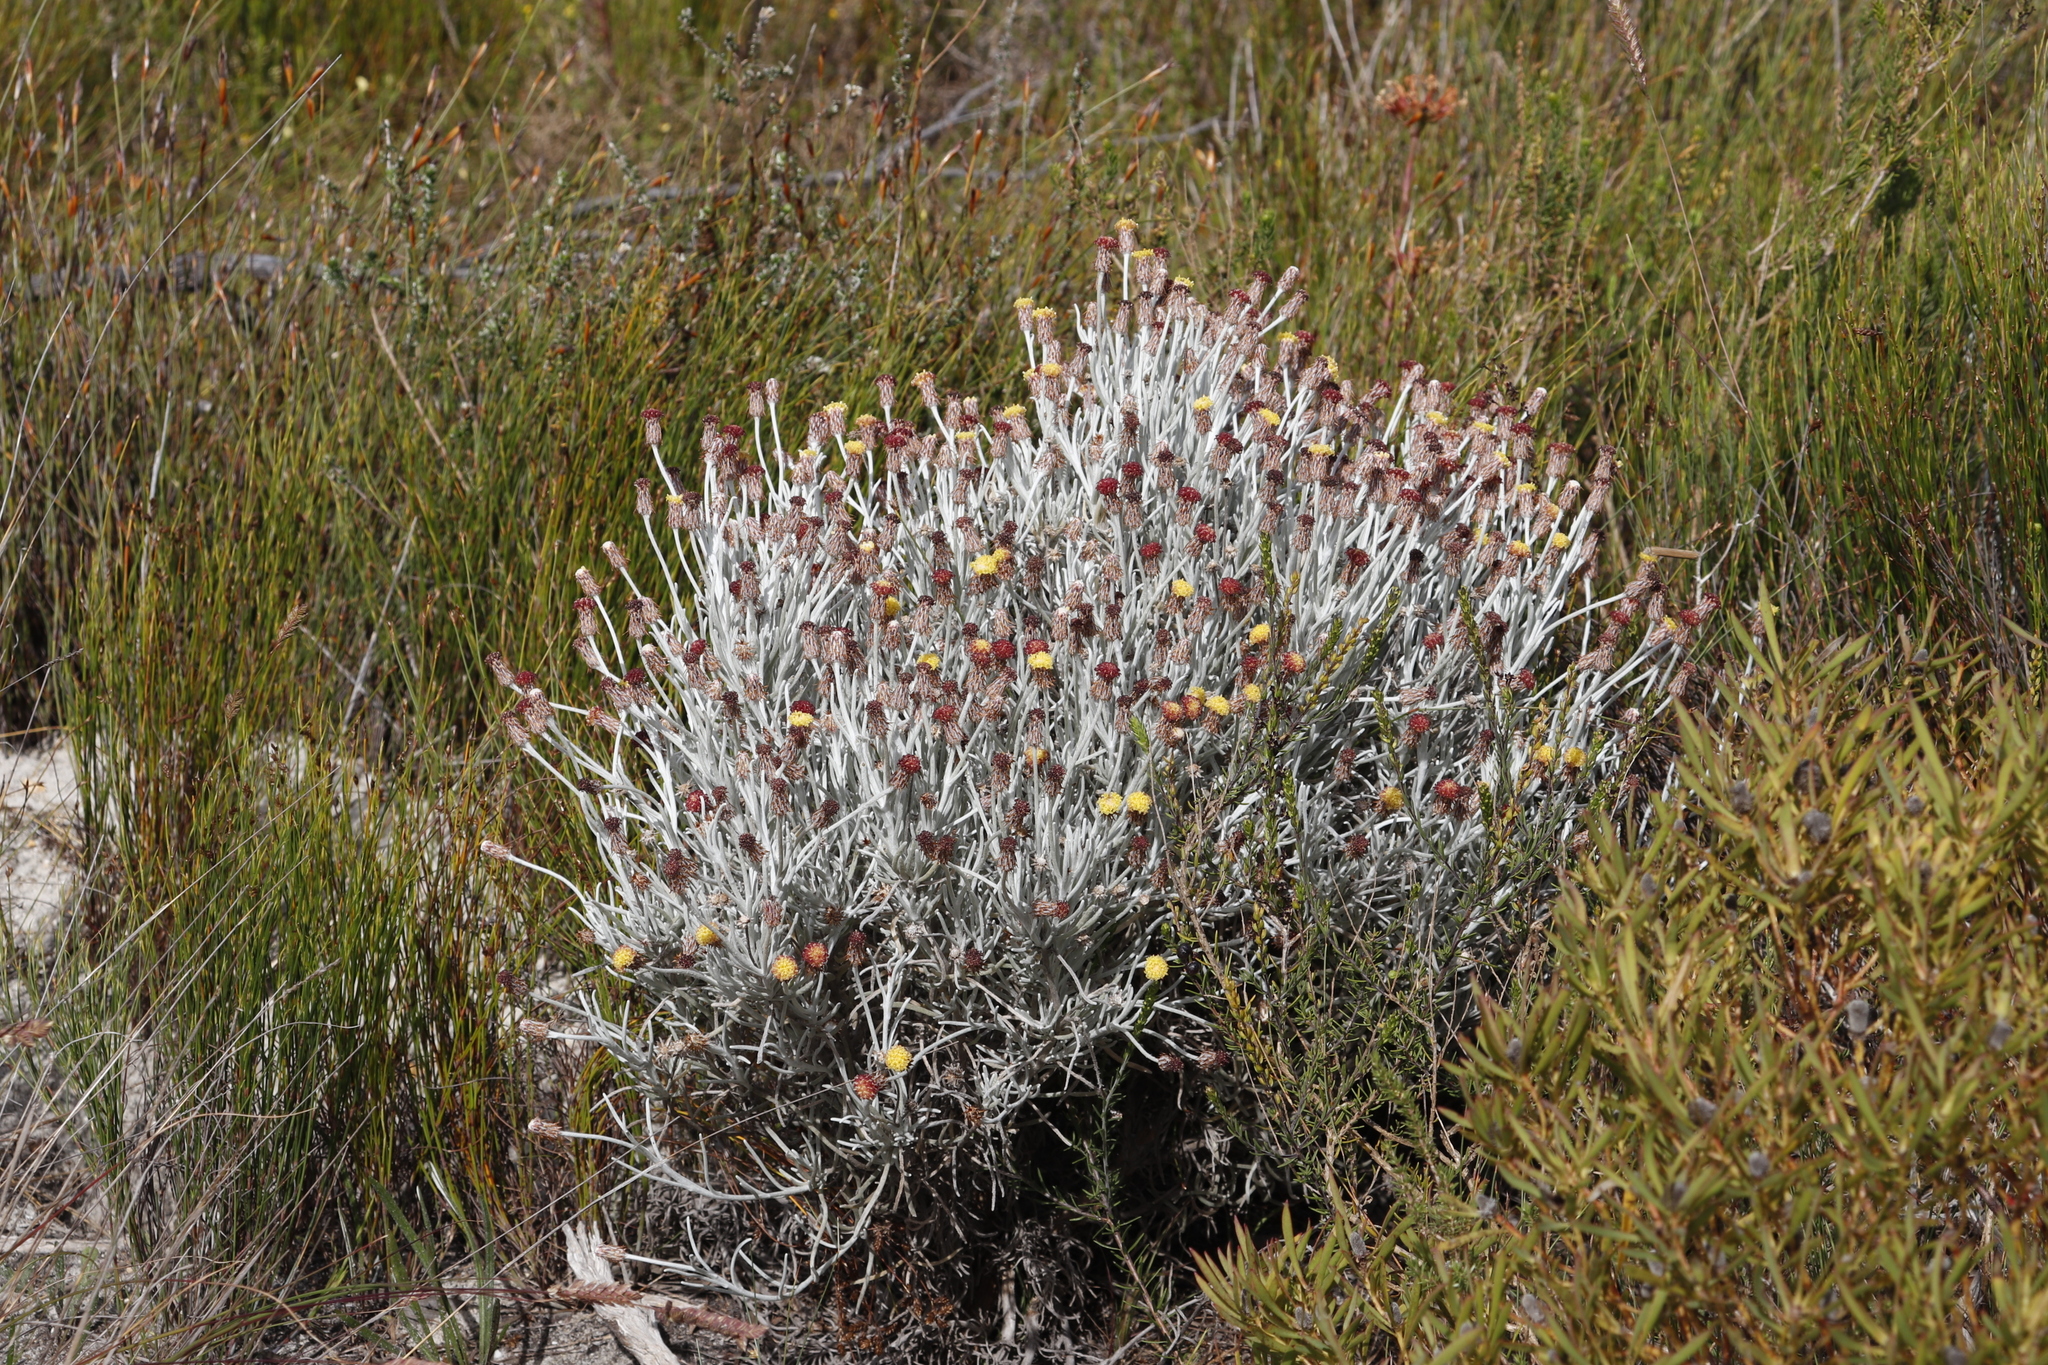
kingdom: Plantae
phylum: Tracheophyta
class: Magnoliopsida
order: Asterales
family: Asteraceae
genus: Syncarpha
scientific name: Syncarpha gnaphaloides
